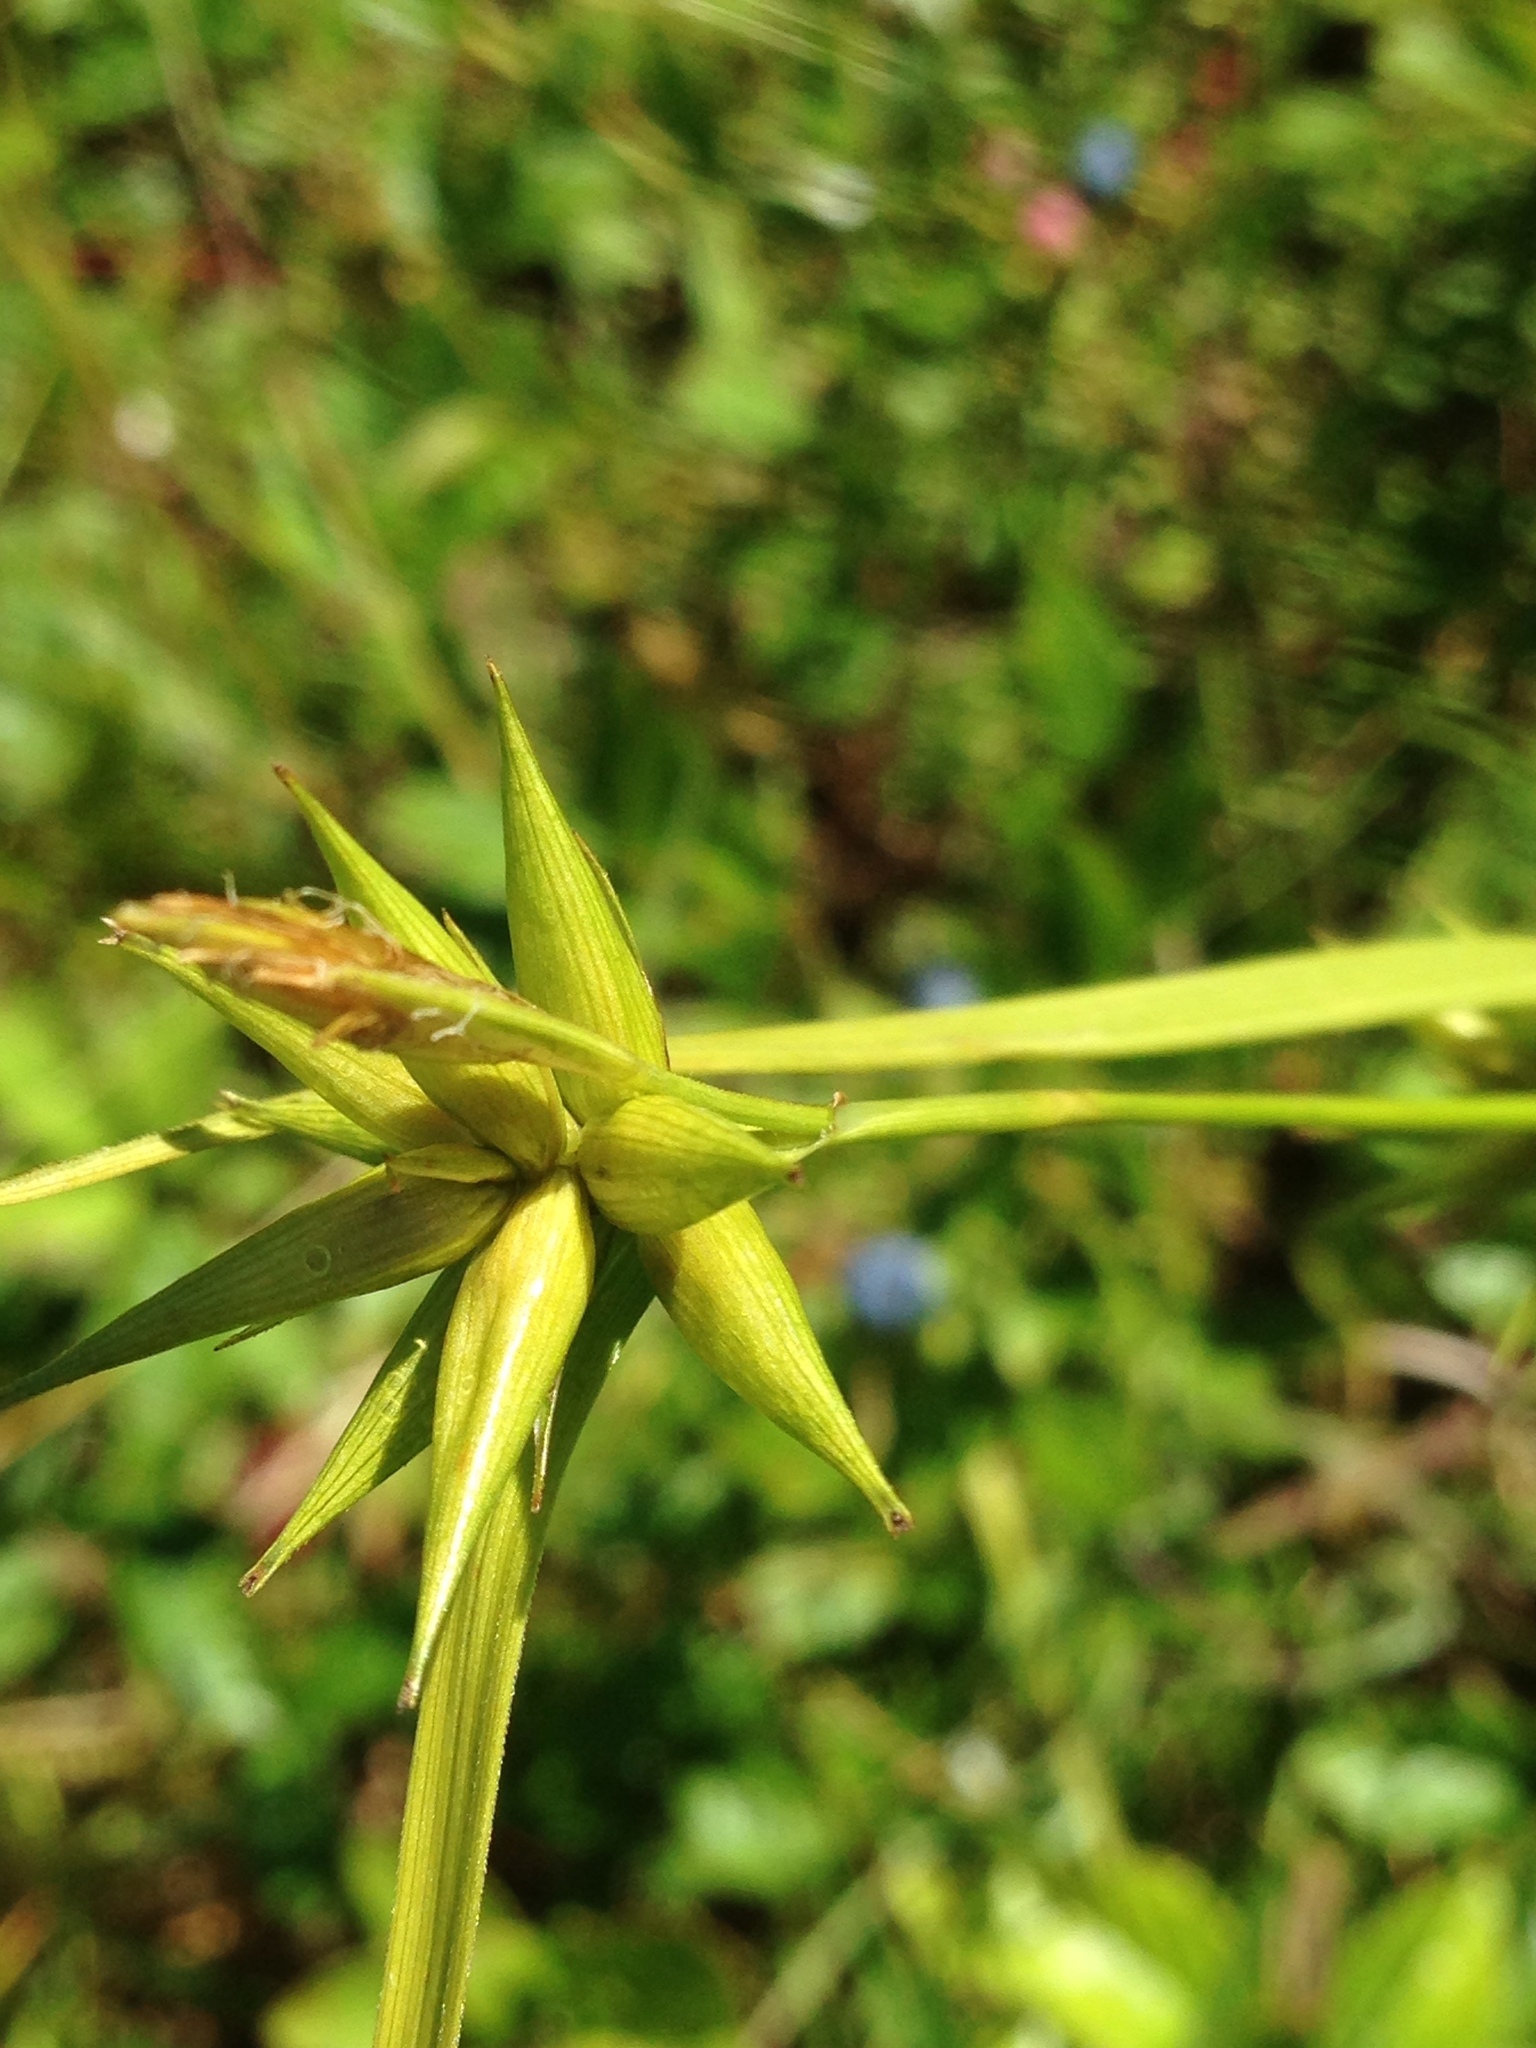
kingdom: Plantae
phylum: Tracheophyta
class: Liliopsida
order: Poales
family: Cyperaceae
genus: Carex
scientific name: Carex folliculata
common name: Northern long sedge
